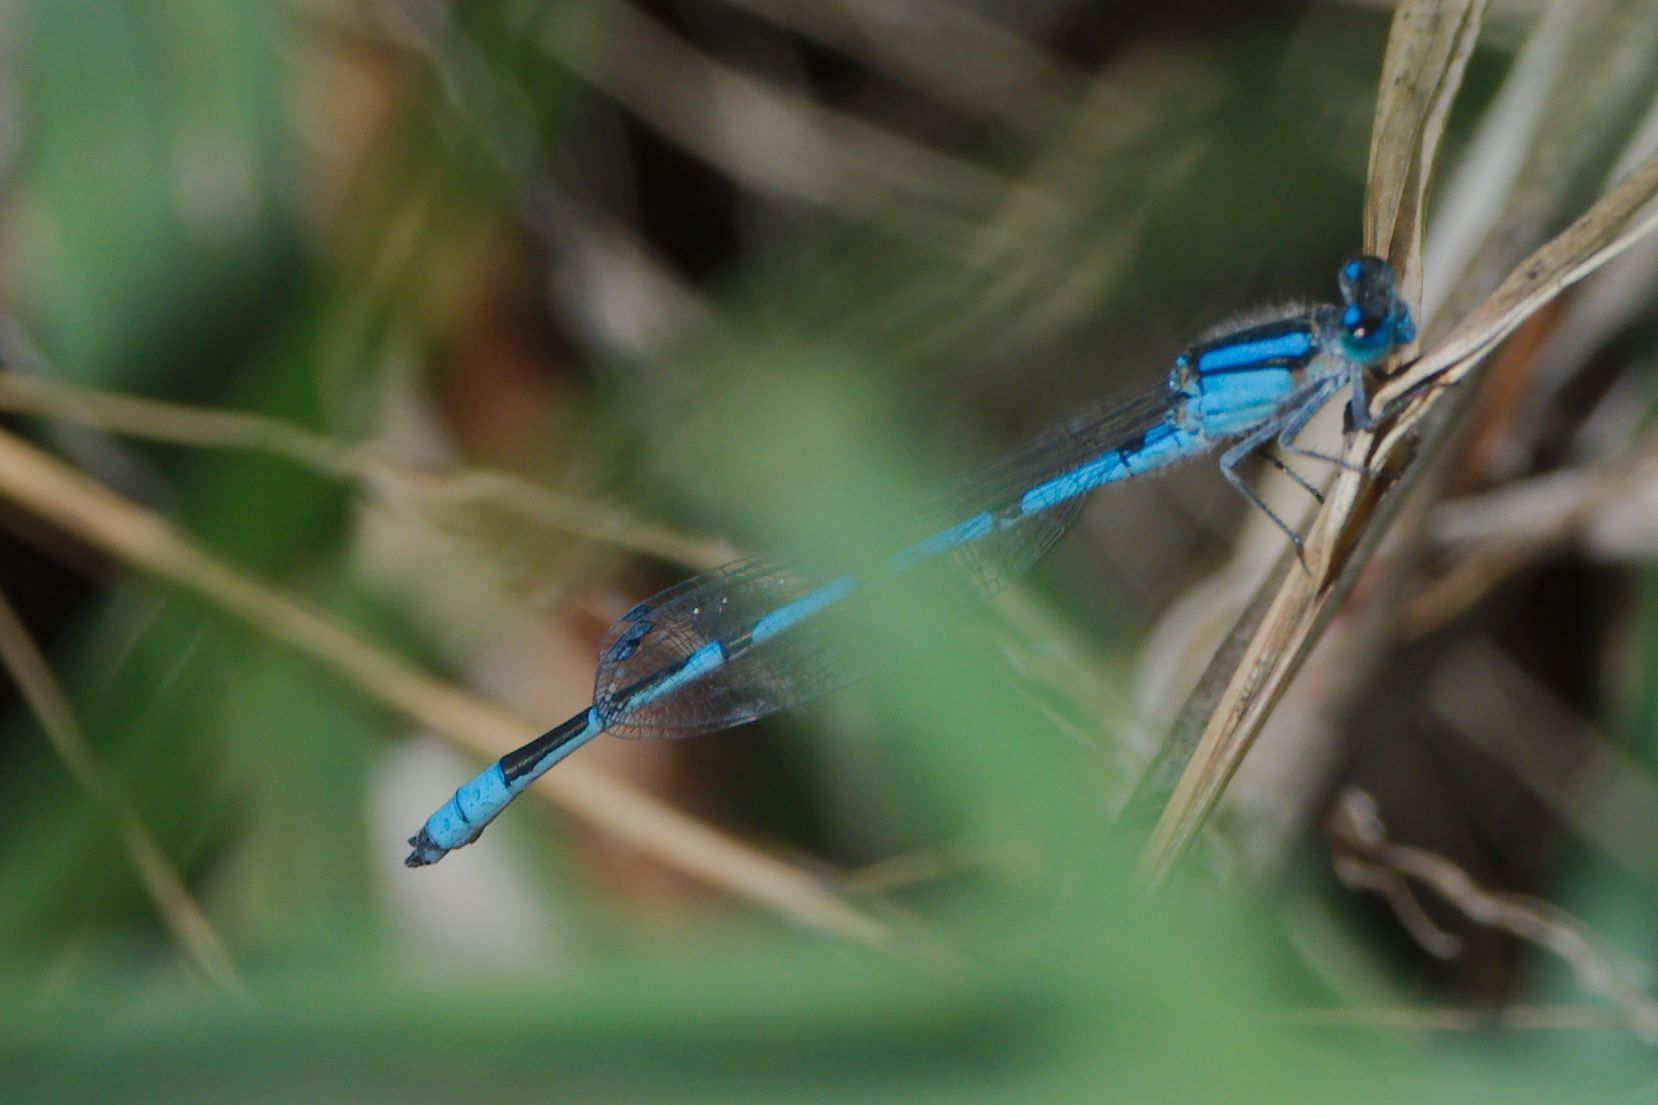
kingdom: Animalia
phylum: Arthropoda
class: Insecta
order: Odonata
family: Coenagrionidae
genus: Enallagma
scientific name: Enallagma civile
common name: Damselfly
